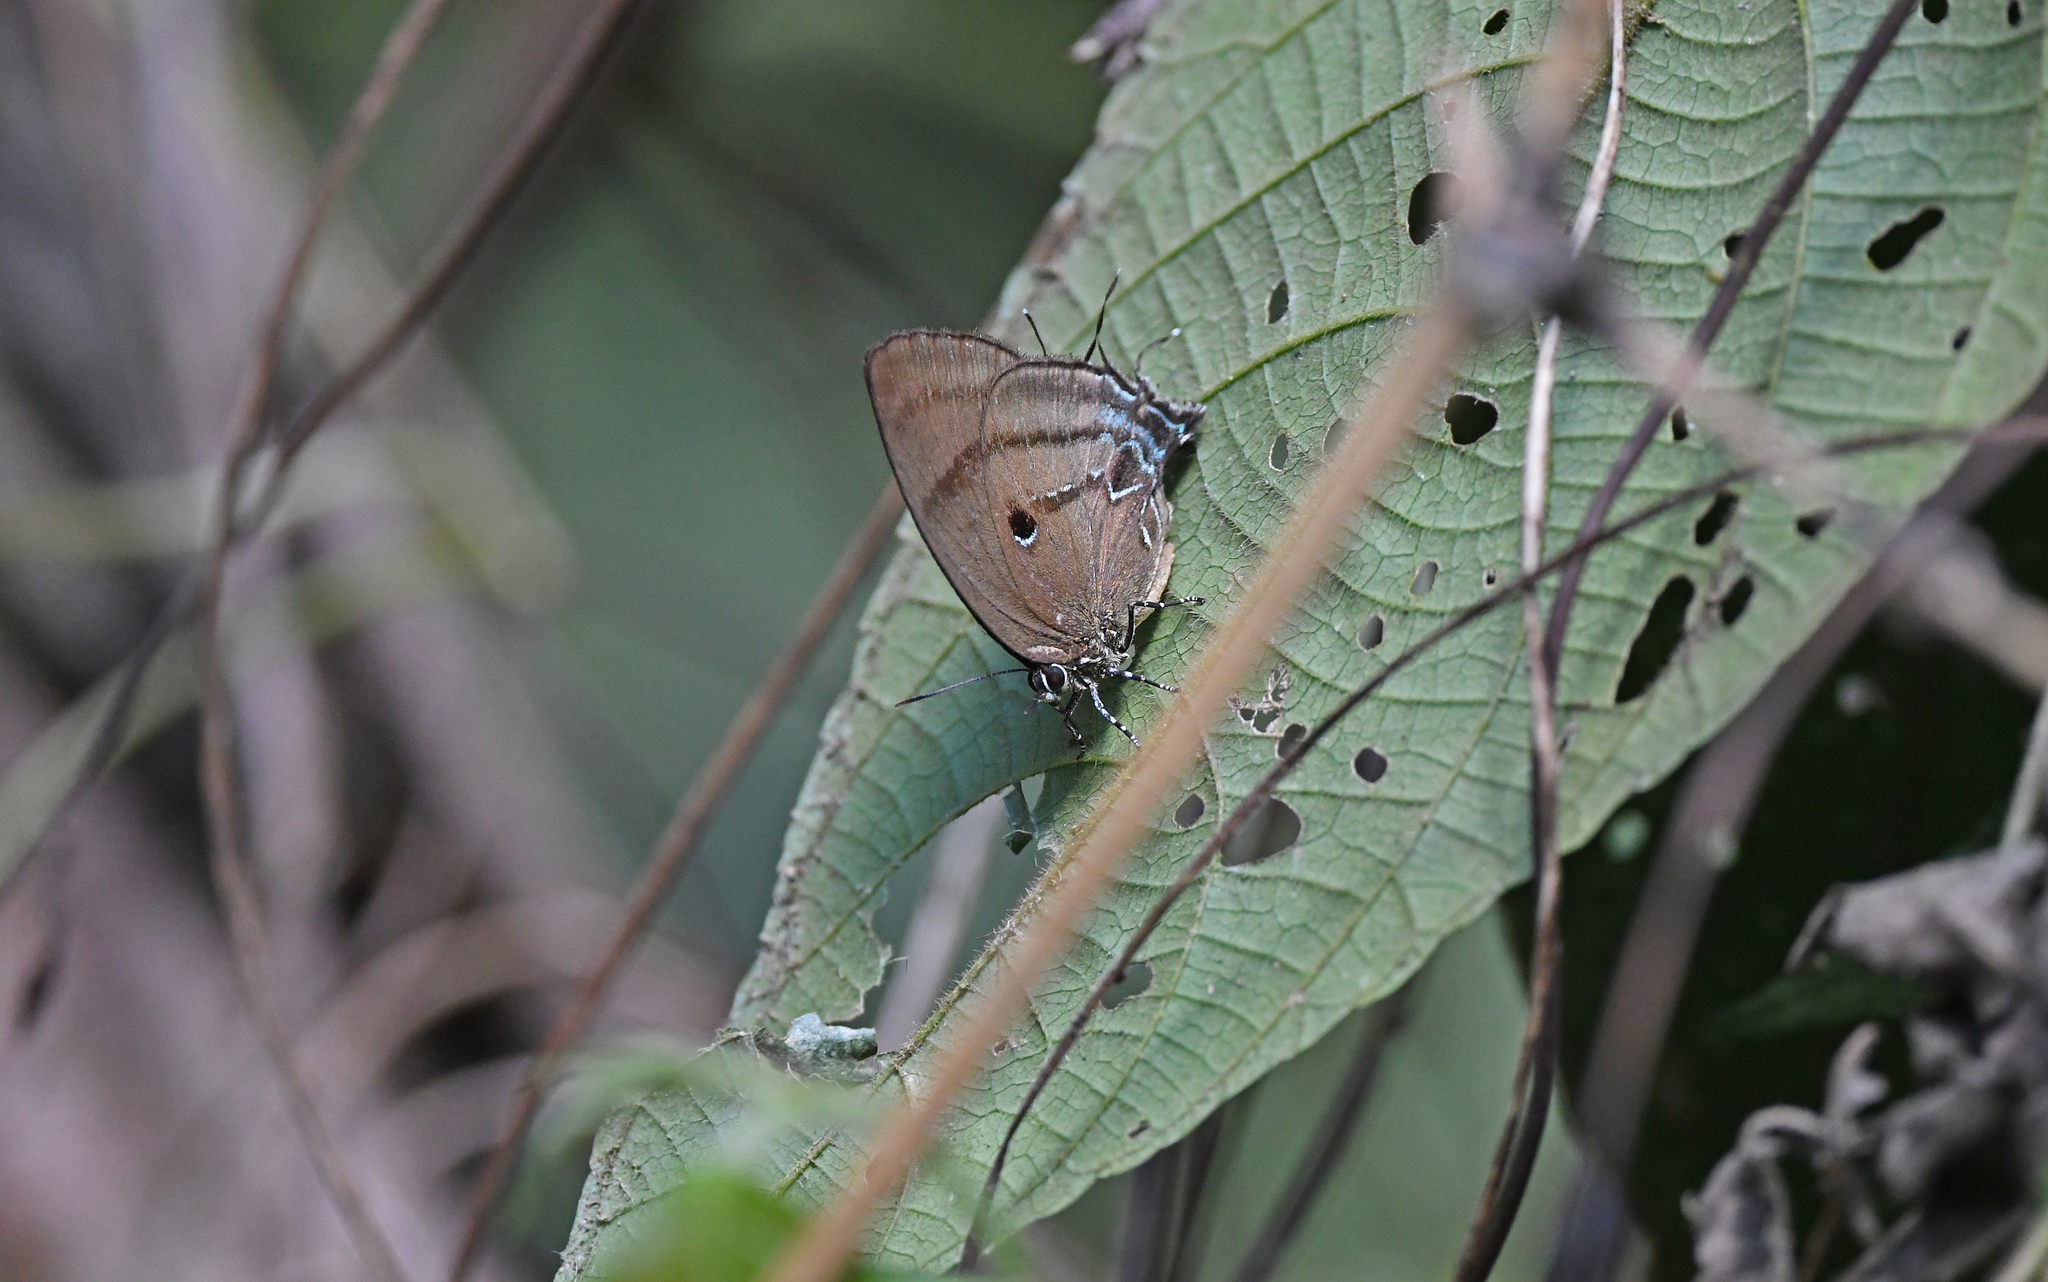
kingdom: Animalia
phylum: Arthropoda
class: Insecta
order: Lepidoptera
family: Lycaenidae
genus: Denivia
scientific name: Denivia hemon
